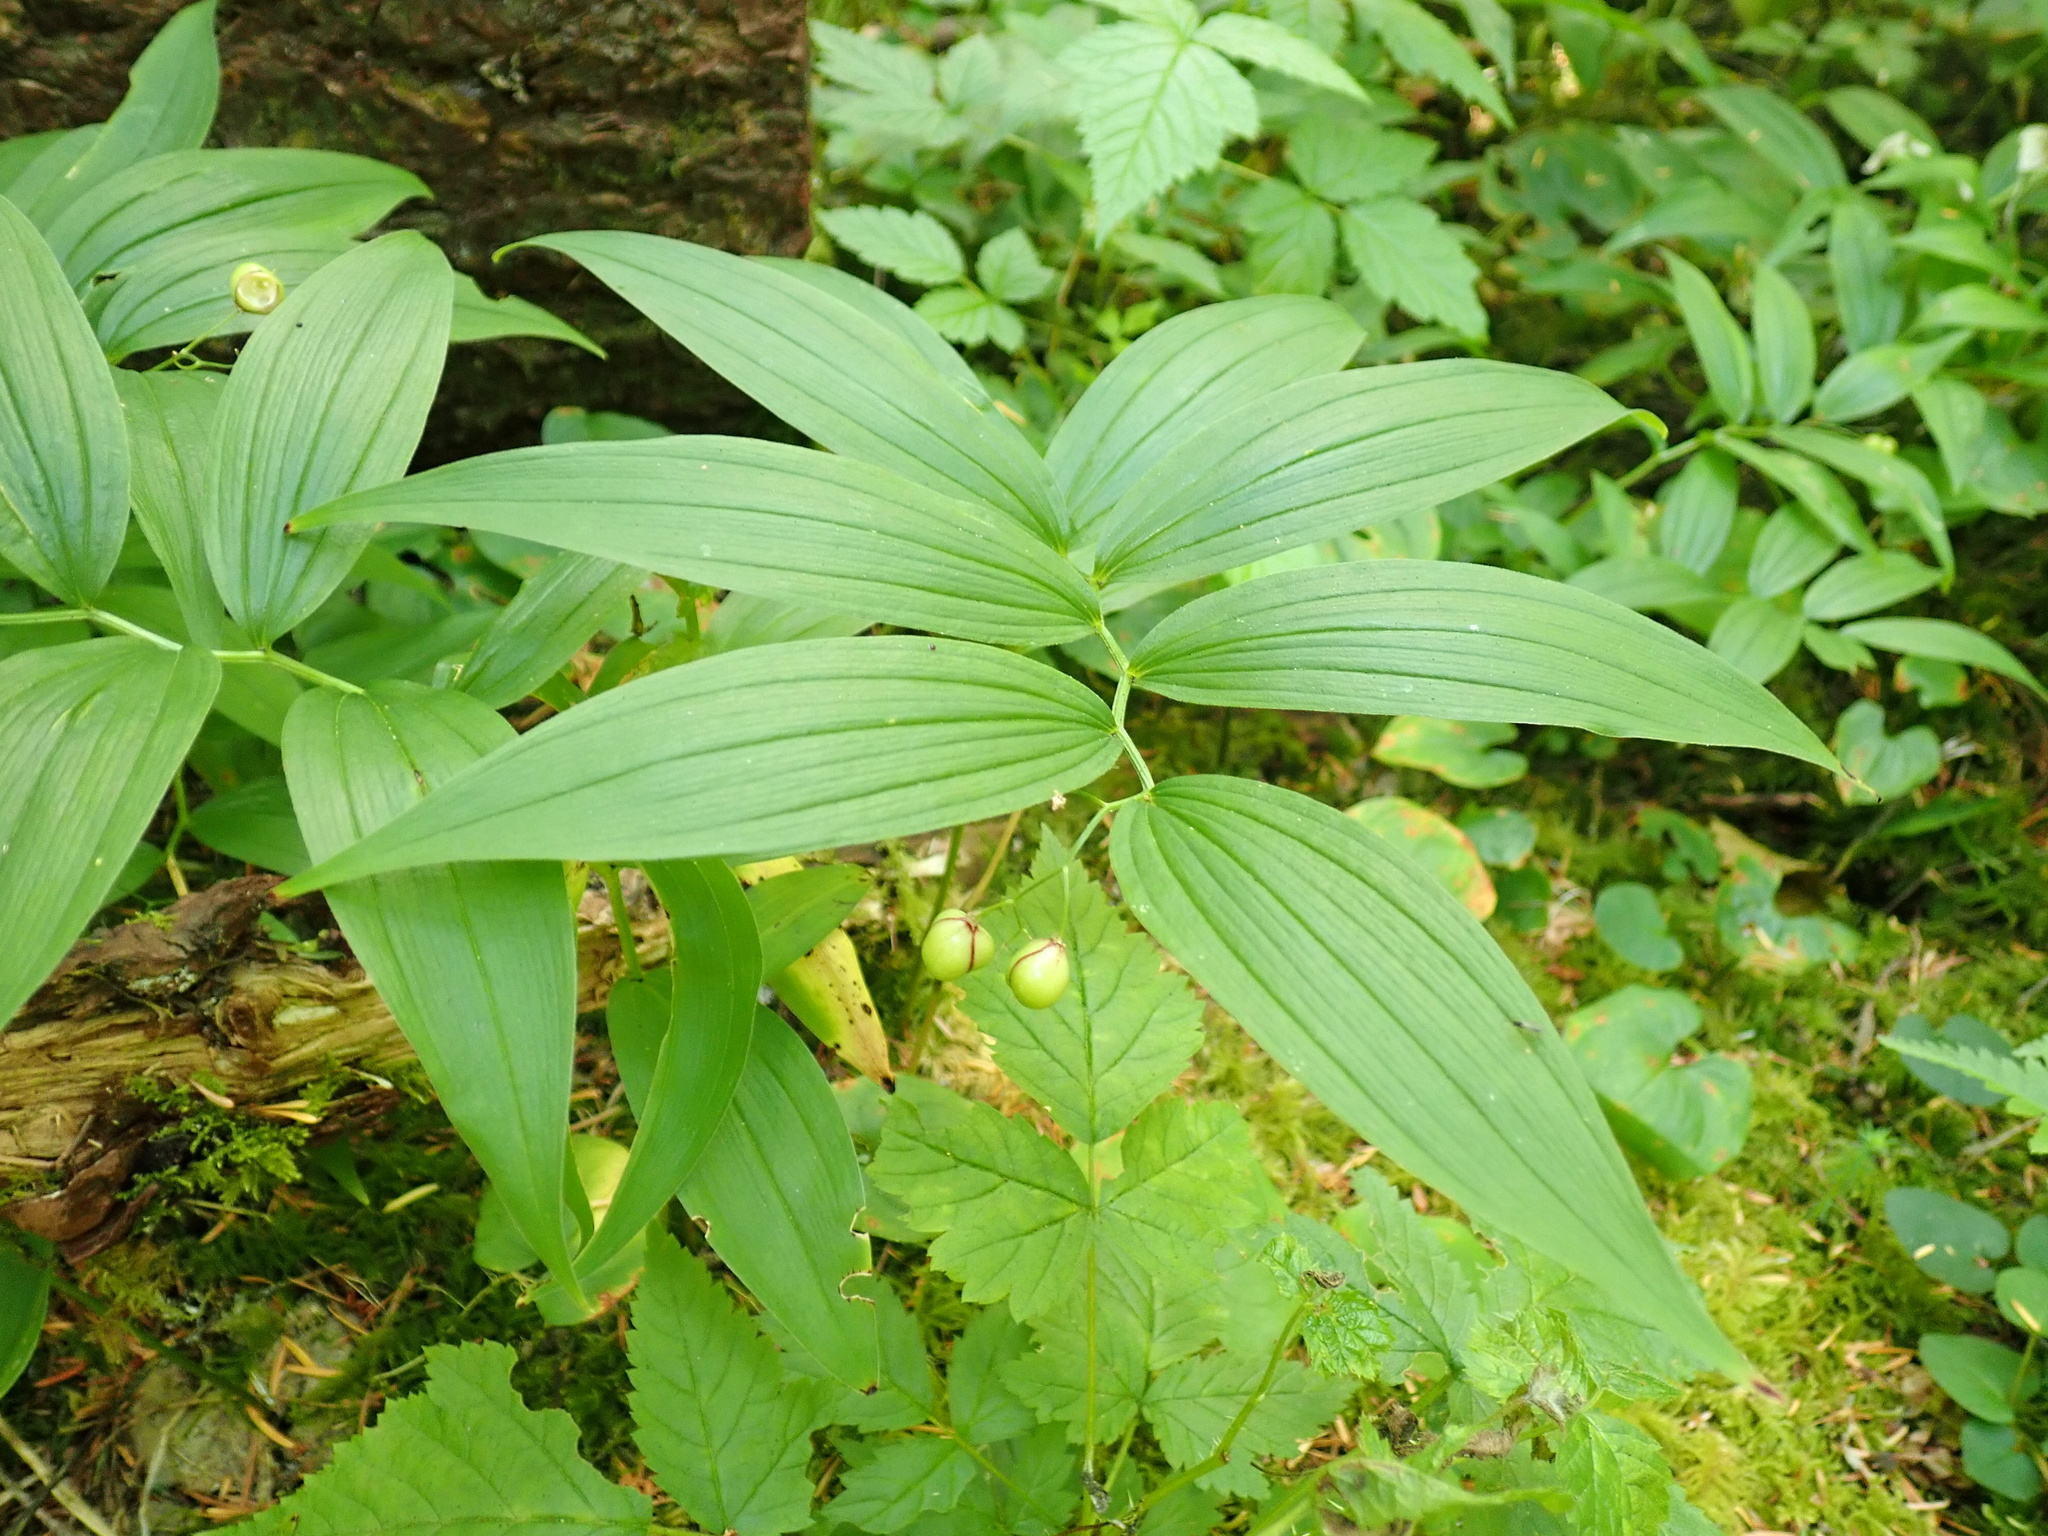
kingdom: Plantae
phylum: Tracheophyta
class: Liliopsida
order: Asparagales
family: Asparagaceae
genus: Maianthemum
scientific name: Maianthemum stellatum
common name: Little false solomon's seal
